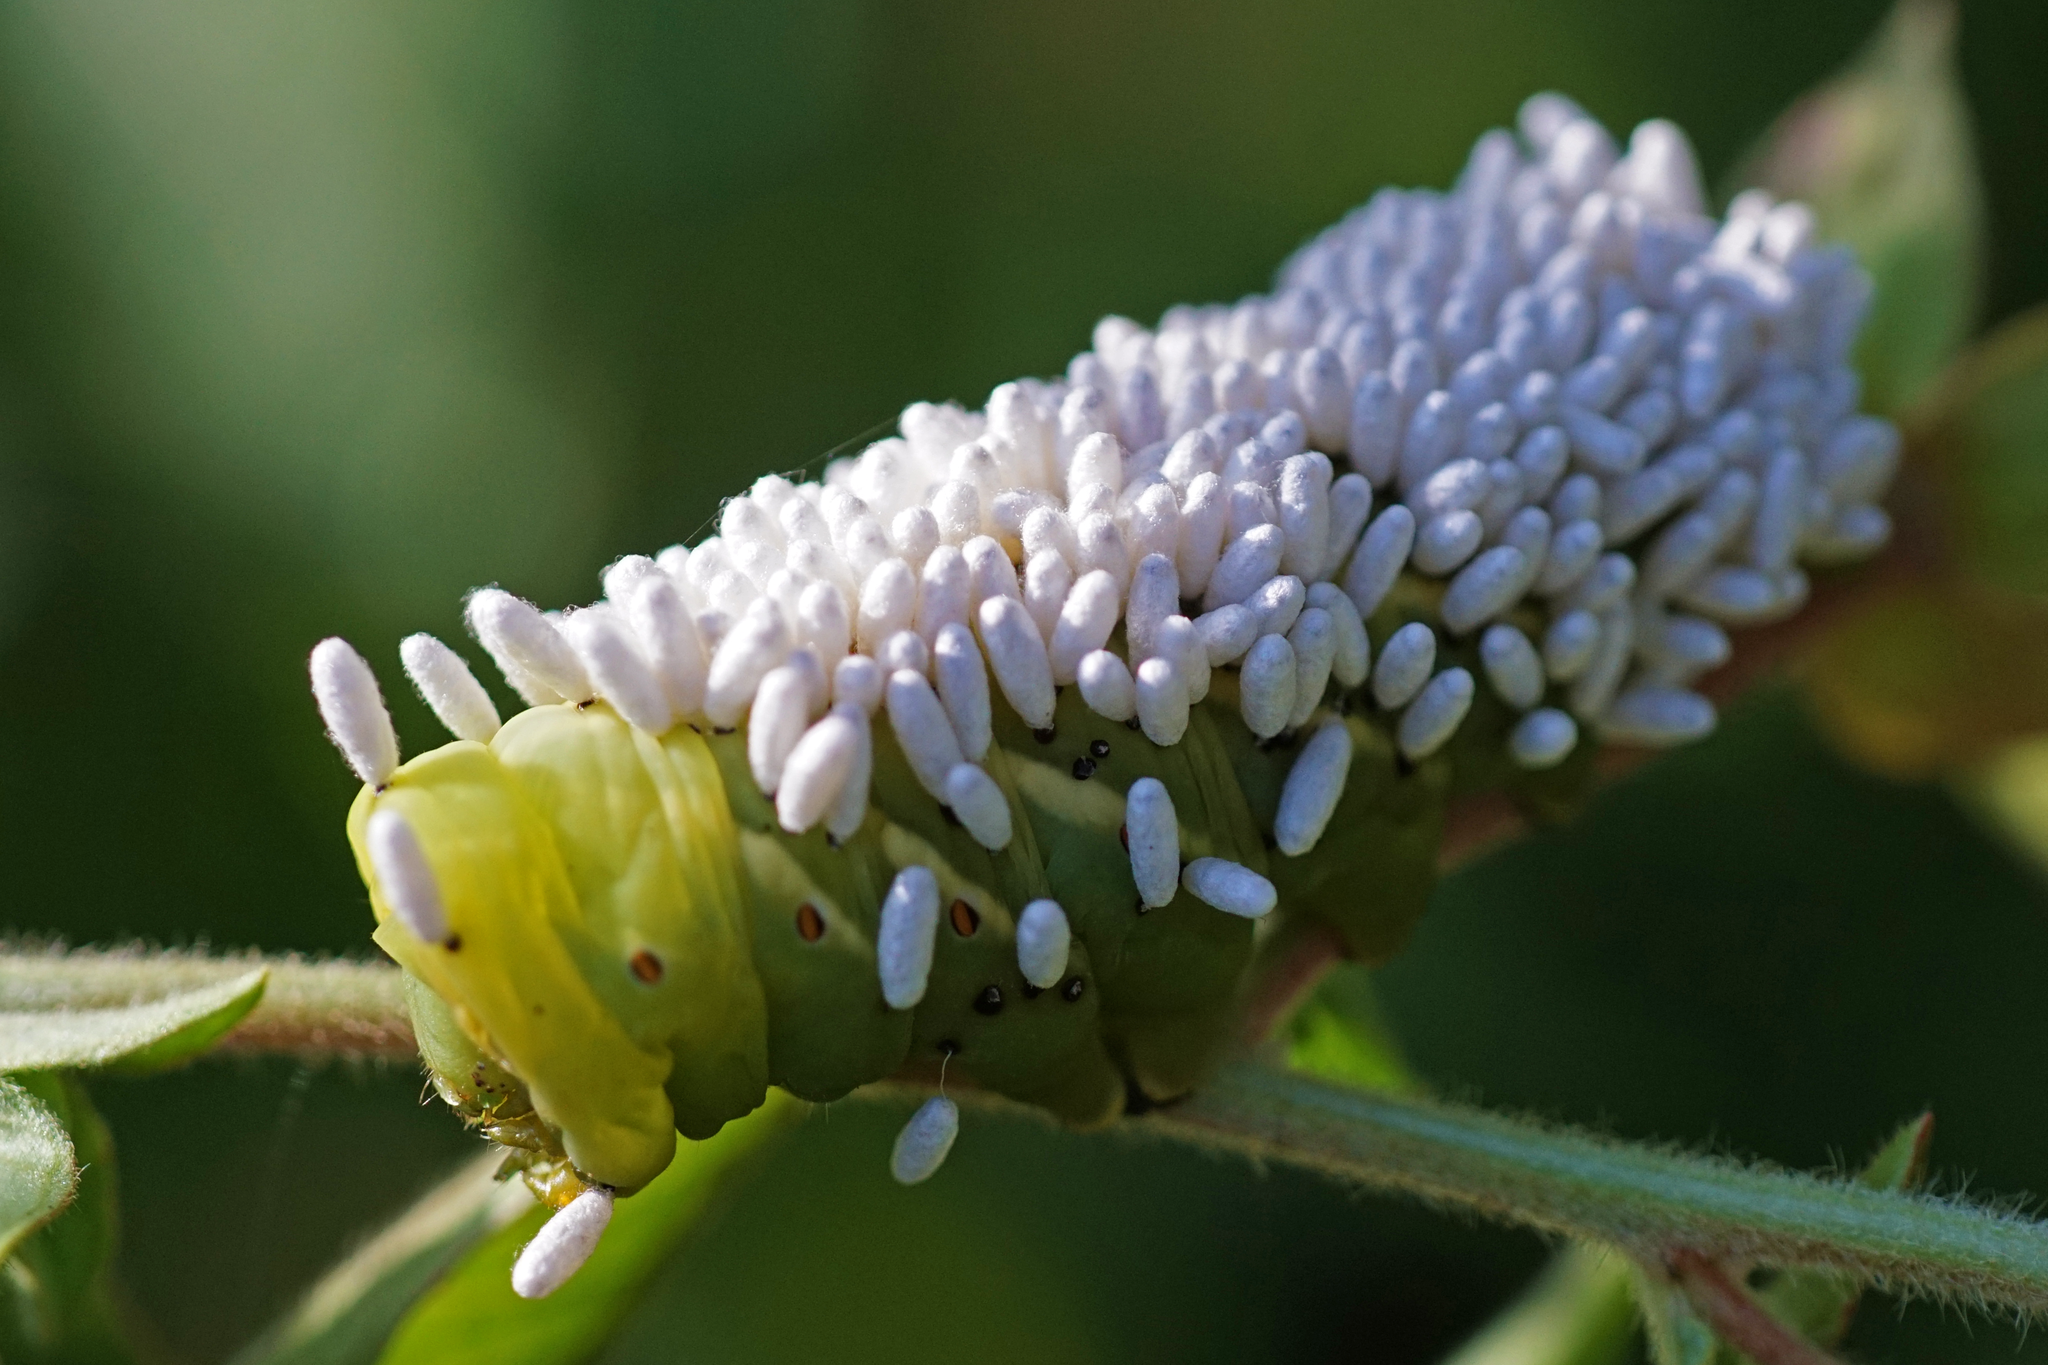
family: Polydnaviriformidae
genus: Bracoviriform
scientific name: Bracoviriform congregatae
